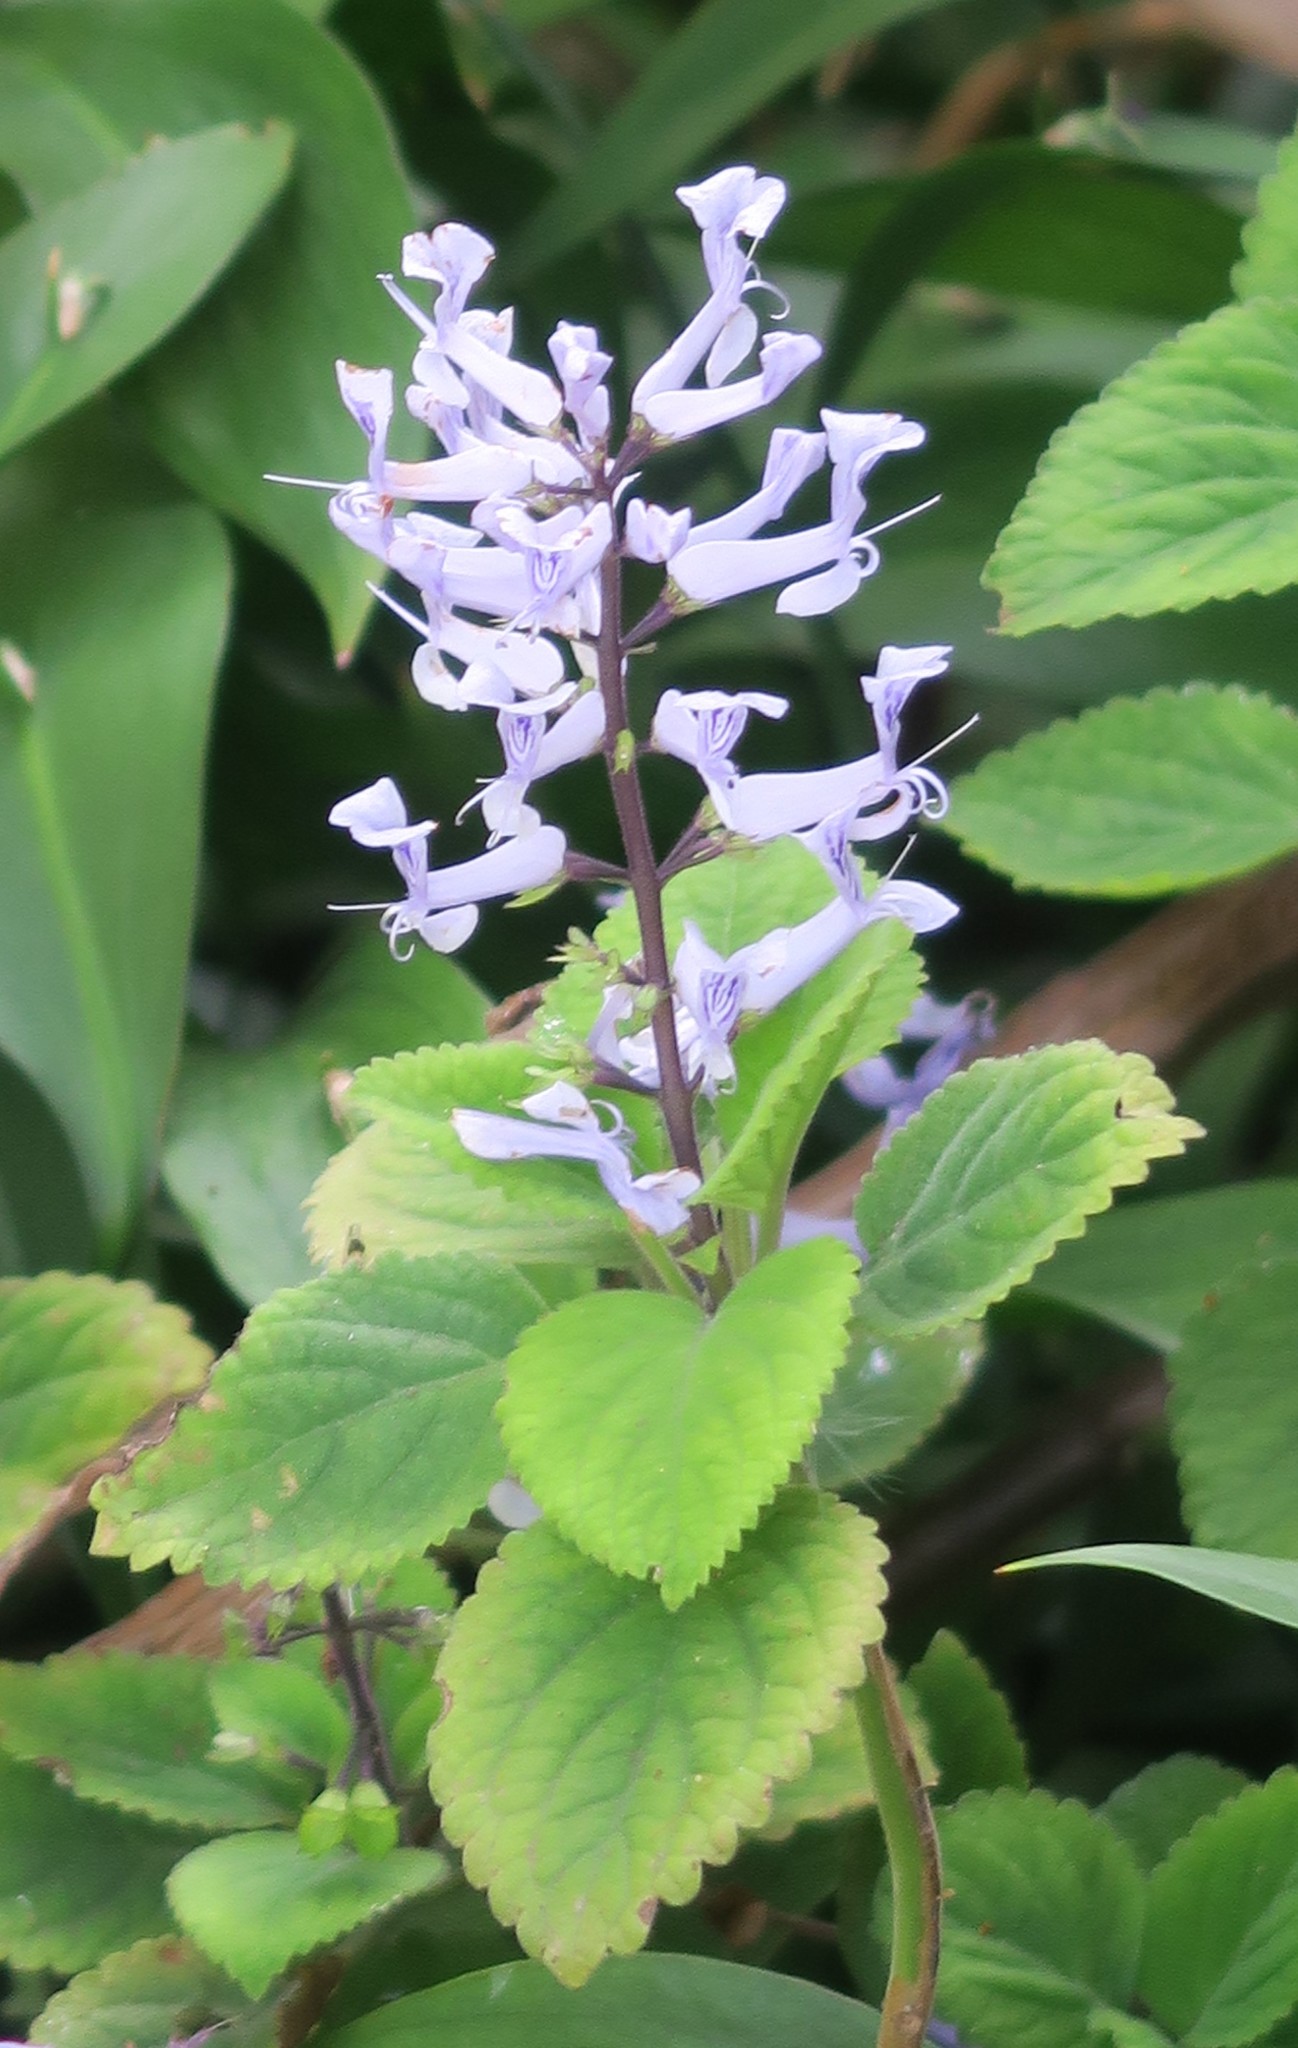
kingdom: Plantae
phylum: Tracheophyta
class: Magnoliopsida
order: Lamiales
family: Lamiaceae
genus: Plectranthus
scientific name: Plectranthus zuluensis
